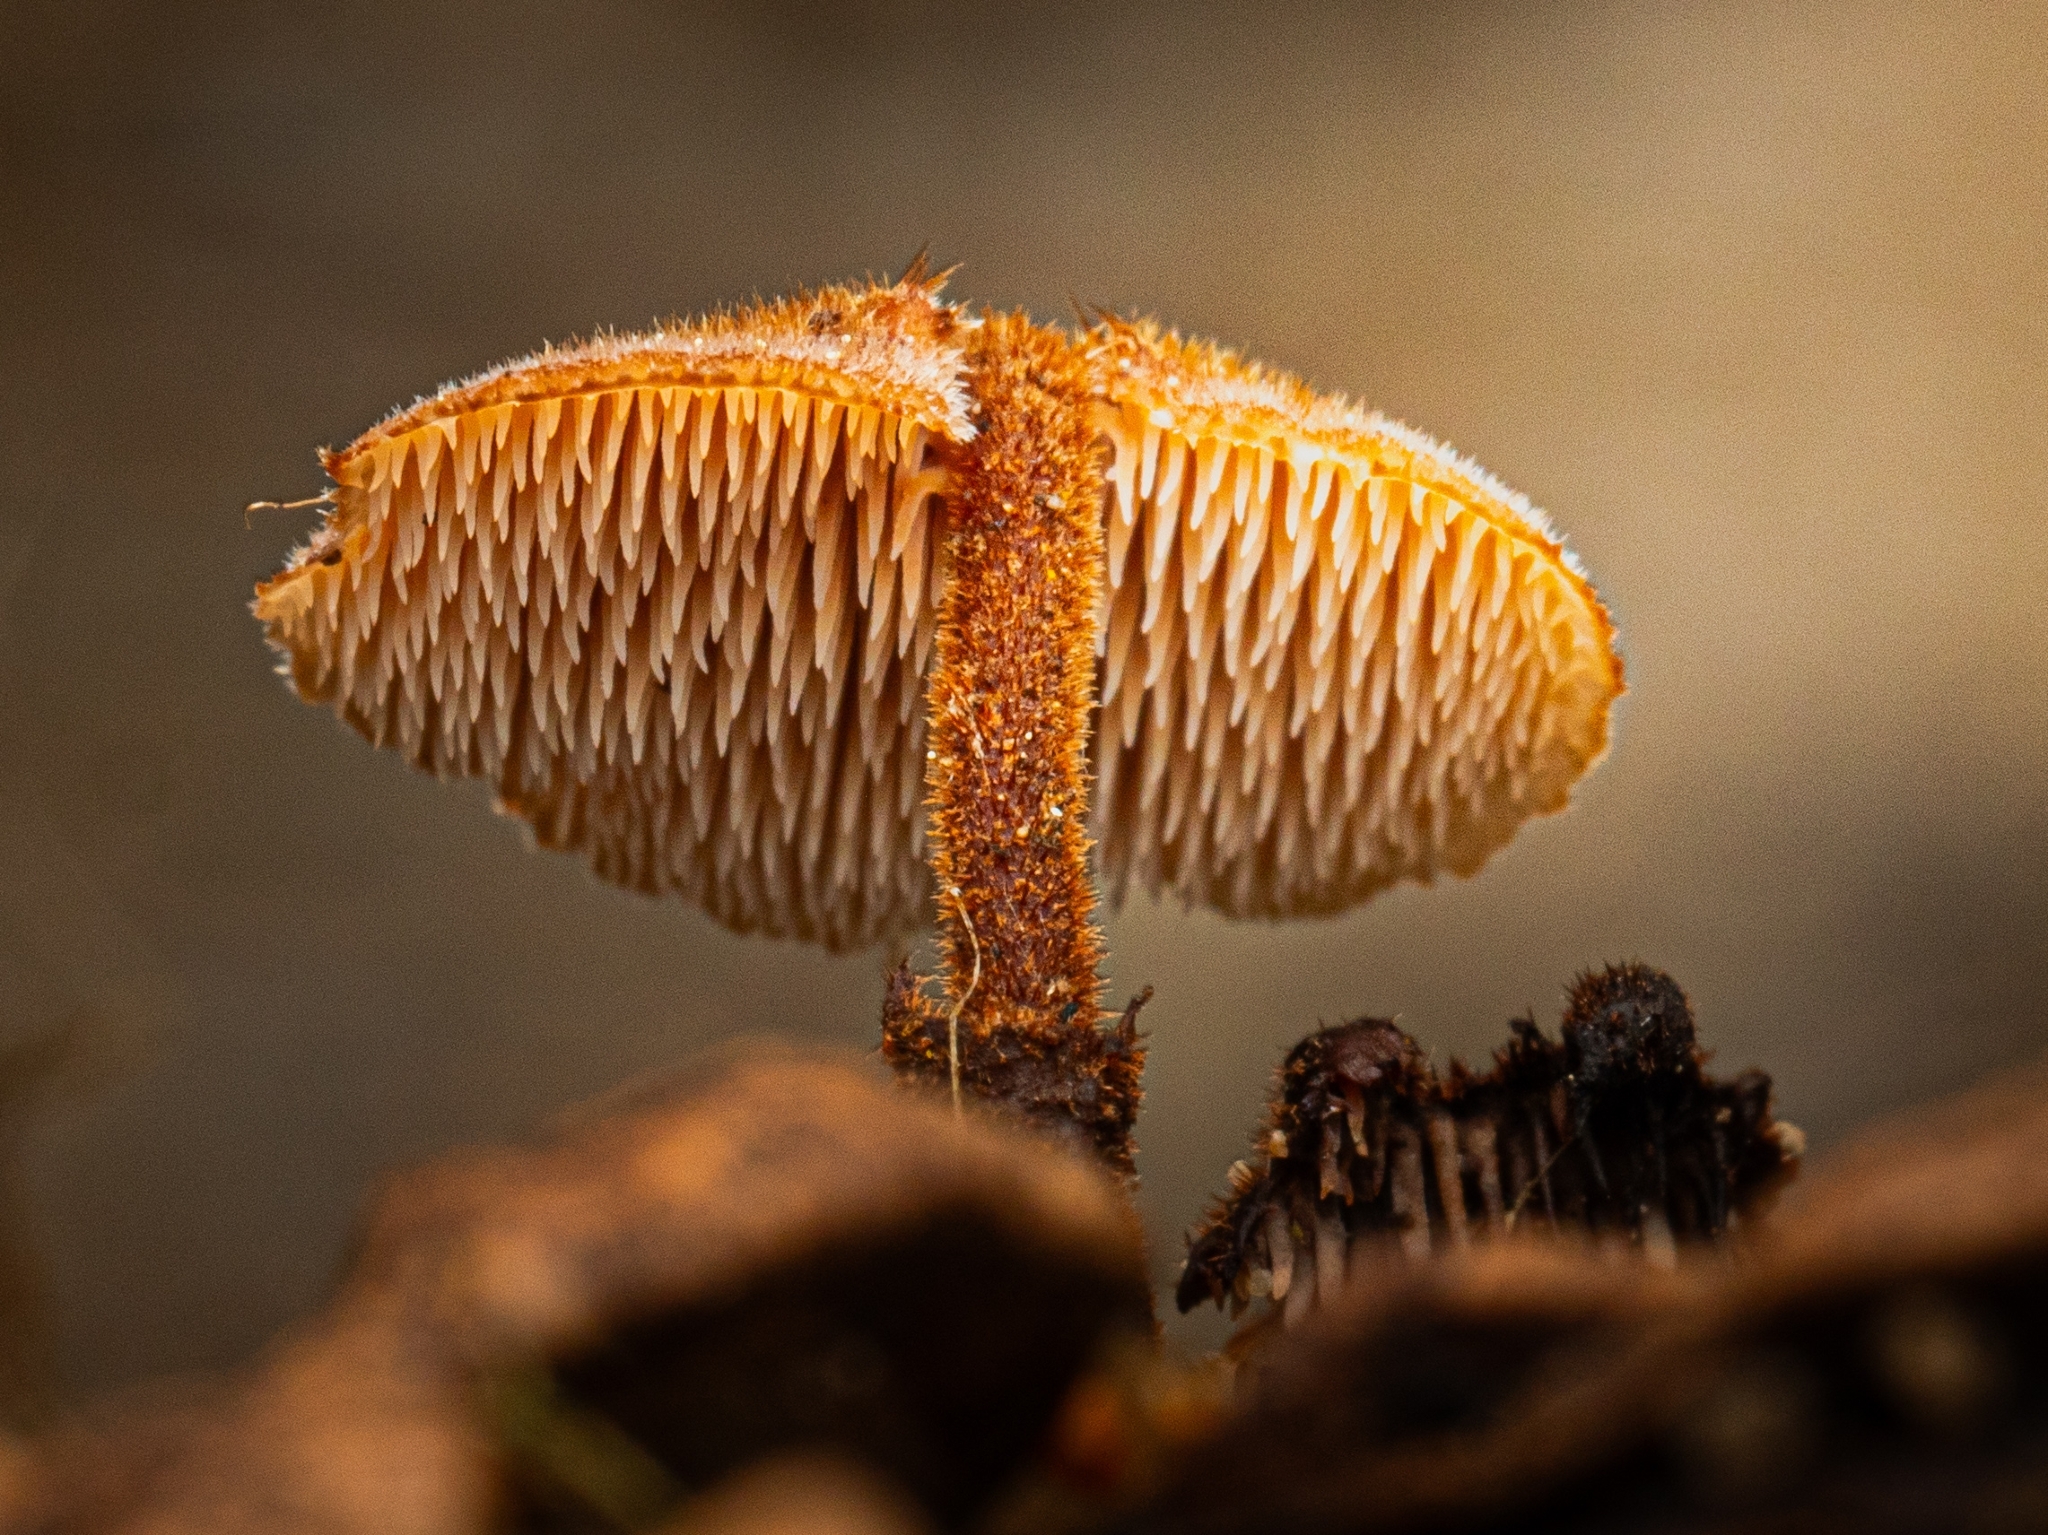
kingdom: Fungi
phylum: Basidiomycota
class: Agaricomycetes
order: Russulales
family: Auriscalpiaceae
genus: Auriscalpium
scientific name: Auriscalpium vulgare
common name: Earpick fungus
